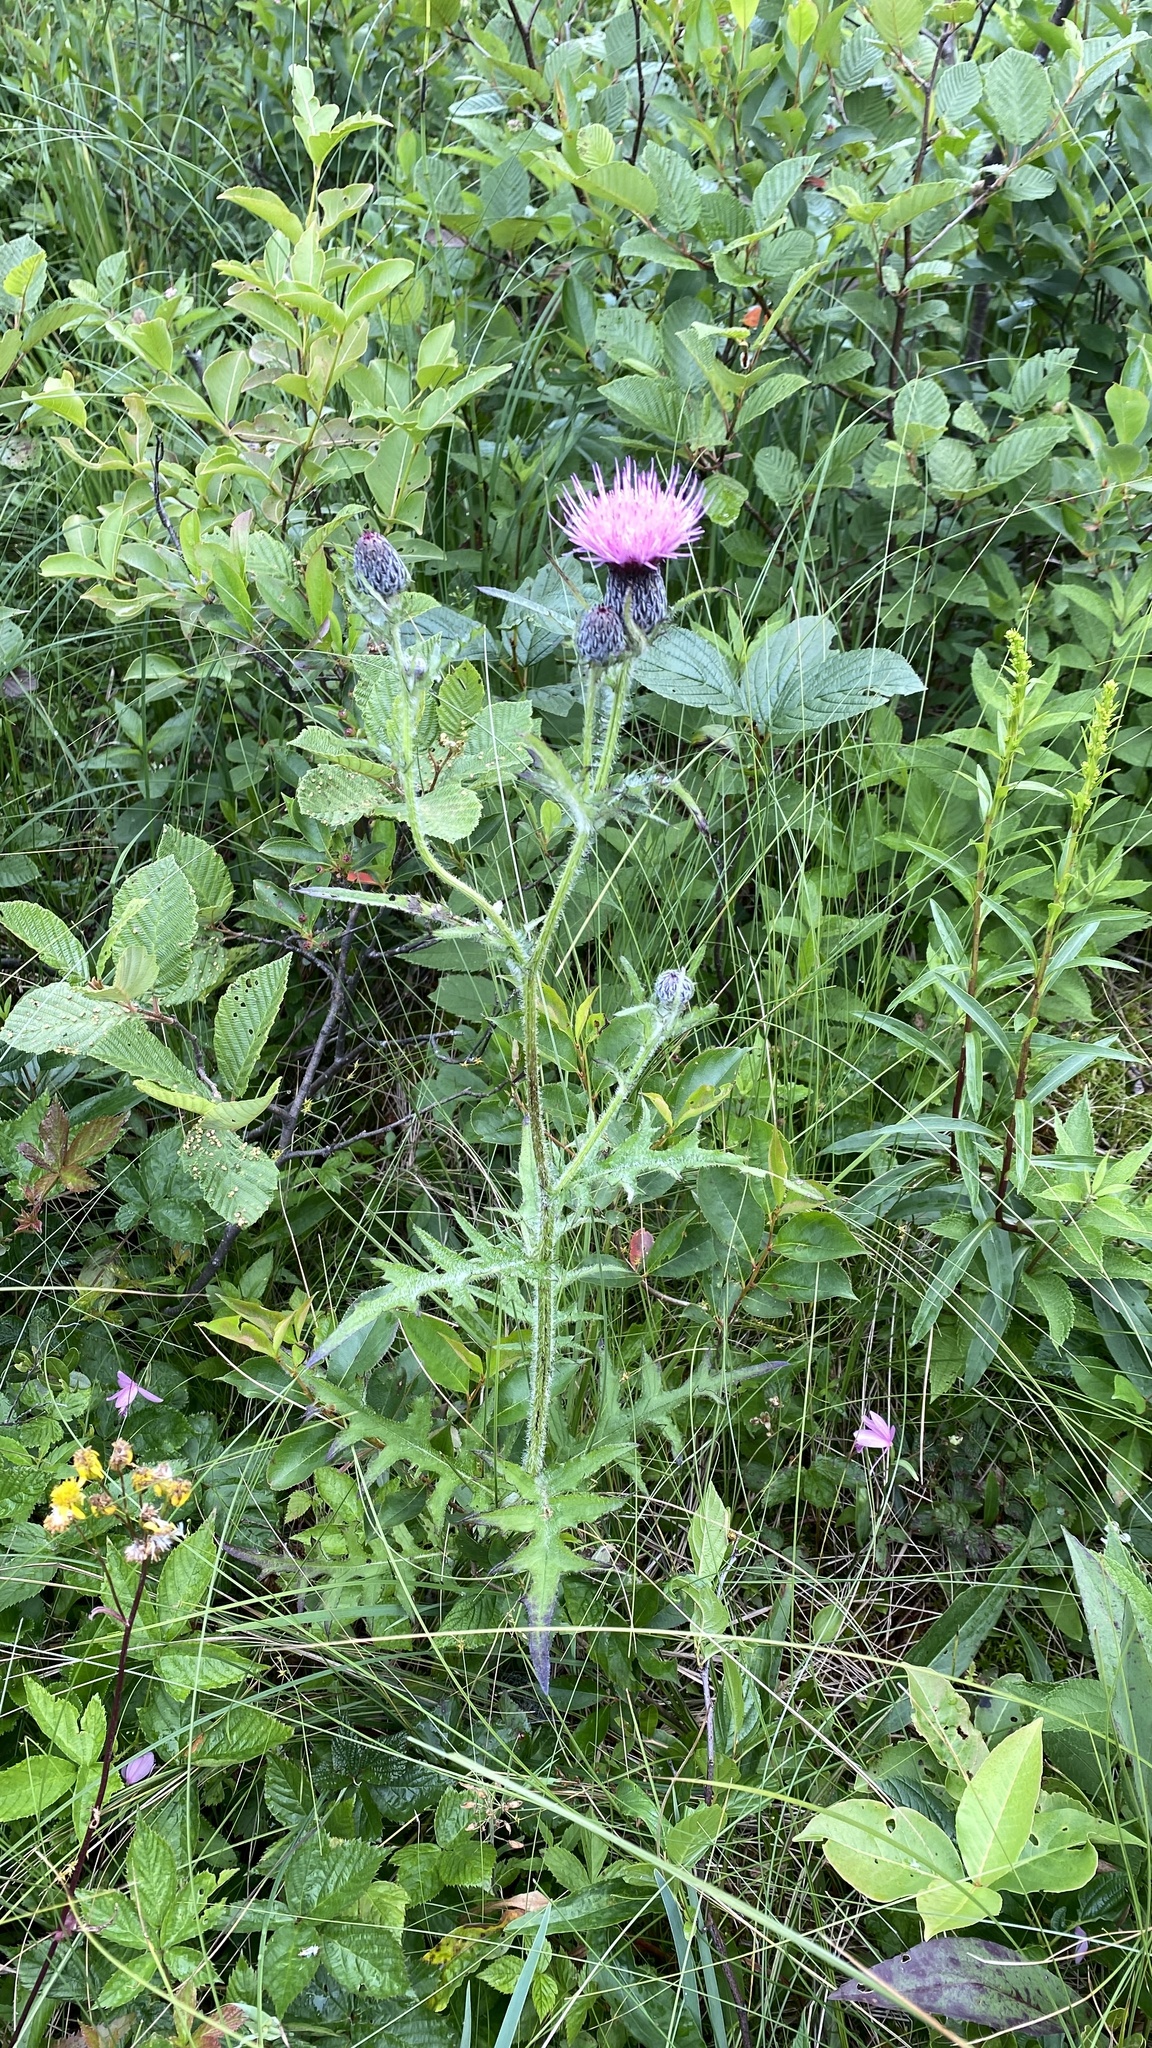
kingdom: Plantae
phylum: Tracheophyta
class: Magnoliopsida
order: Asterales
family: Asteraceae
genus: Cirsium
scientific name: Cirsium muticum
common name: Dunce-nettle
